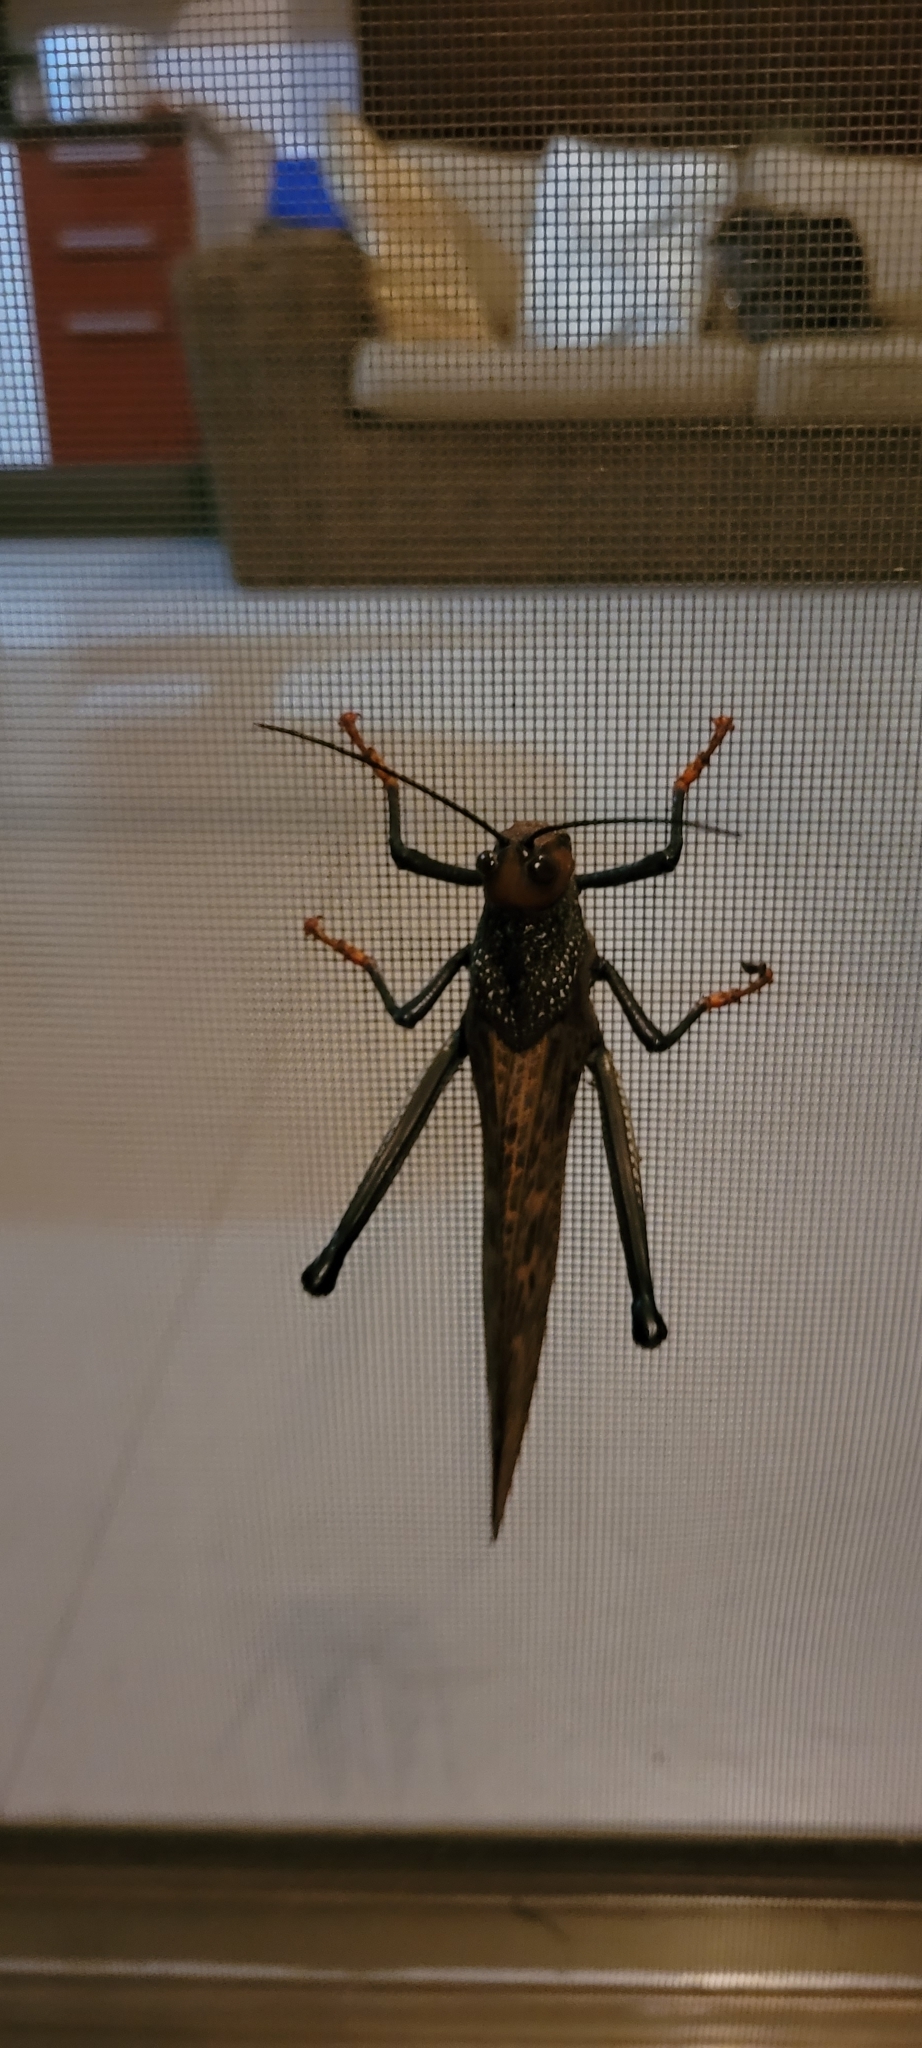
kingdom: Animalia
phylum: Arthropoda
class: Insecta
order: Orthoptera
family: Romaleidae
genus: Tropidacris
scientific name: Tropidacris cristata
